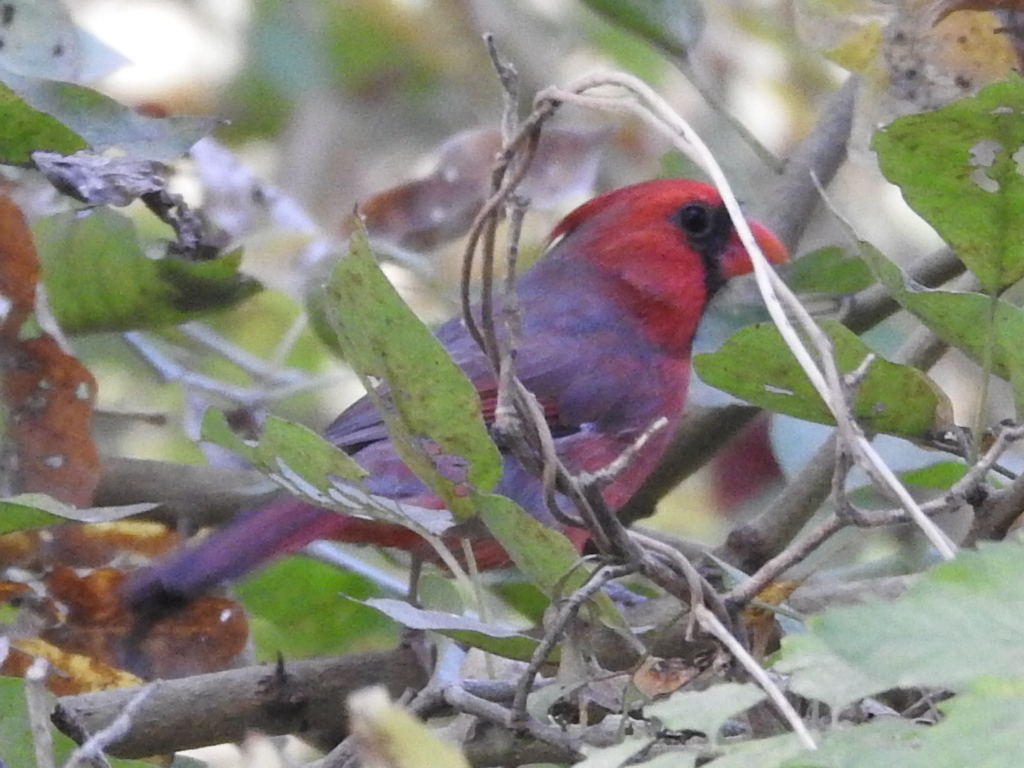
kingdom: Animalia
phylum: Chordata
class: Aves
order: Passeriformes
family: Cardinalidae
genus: Cardinalis
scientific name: Cardinalis cardinalis
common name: Northern cardinal
